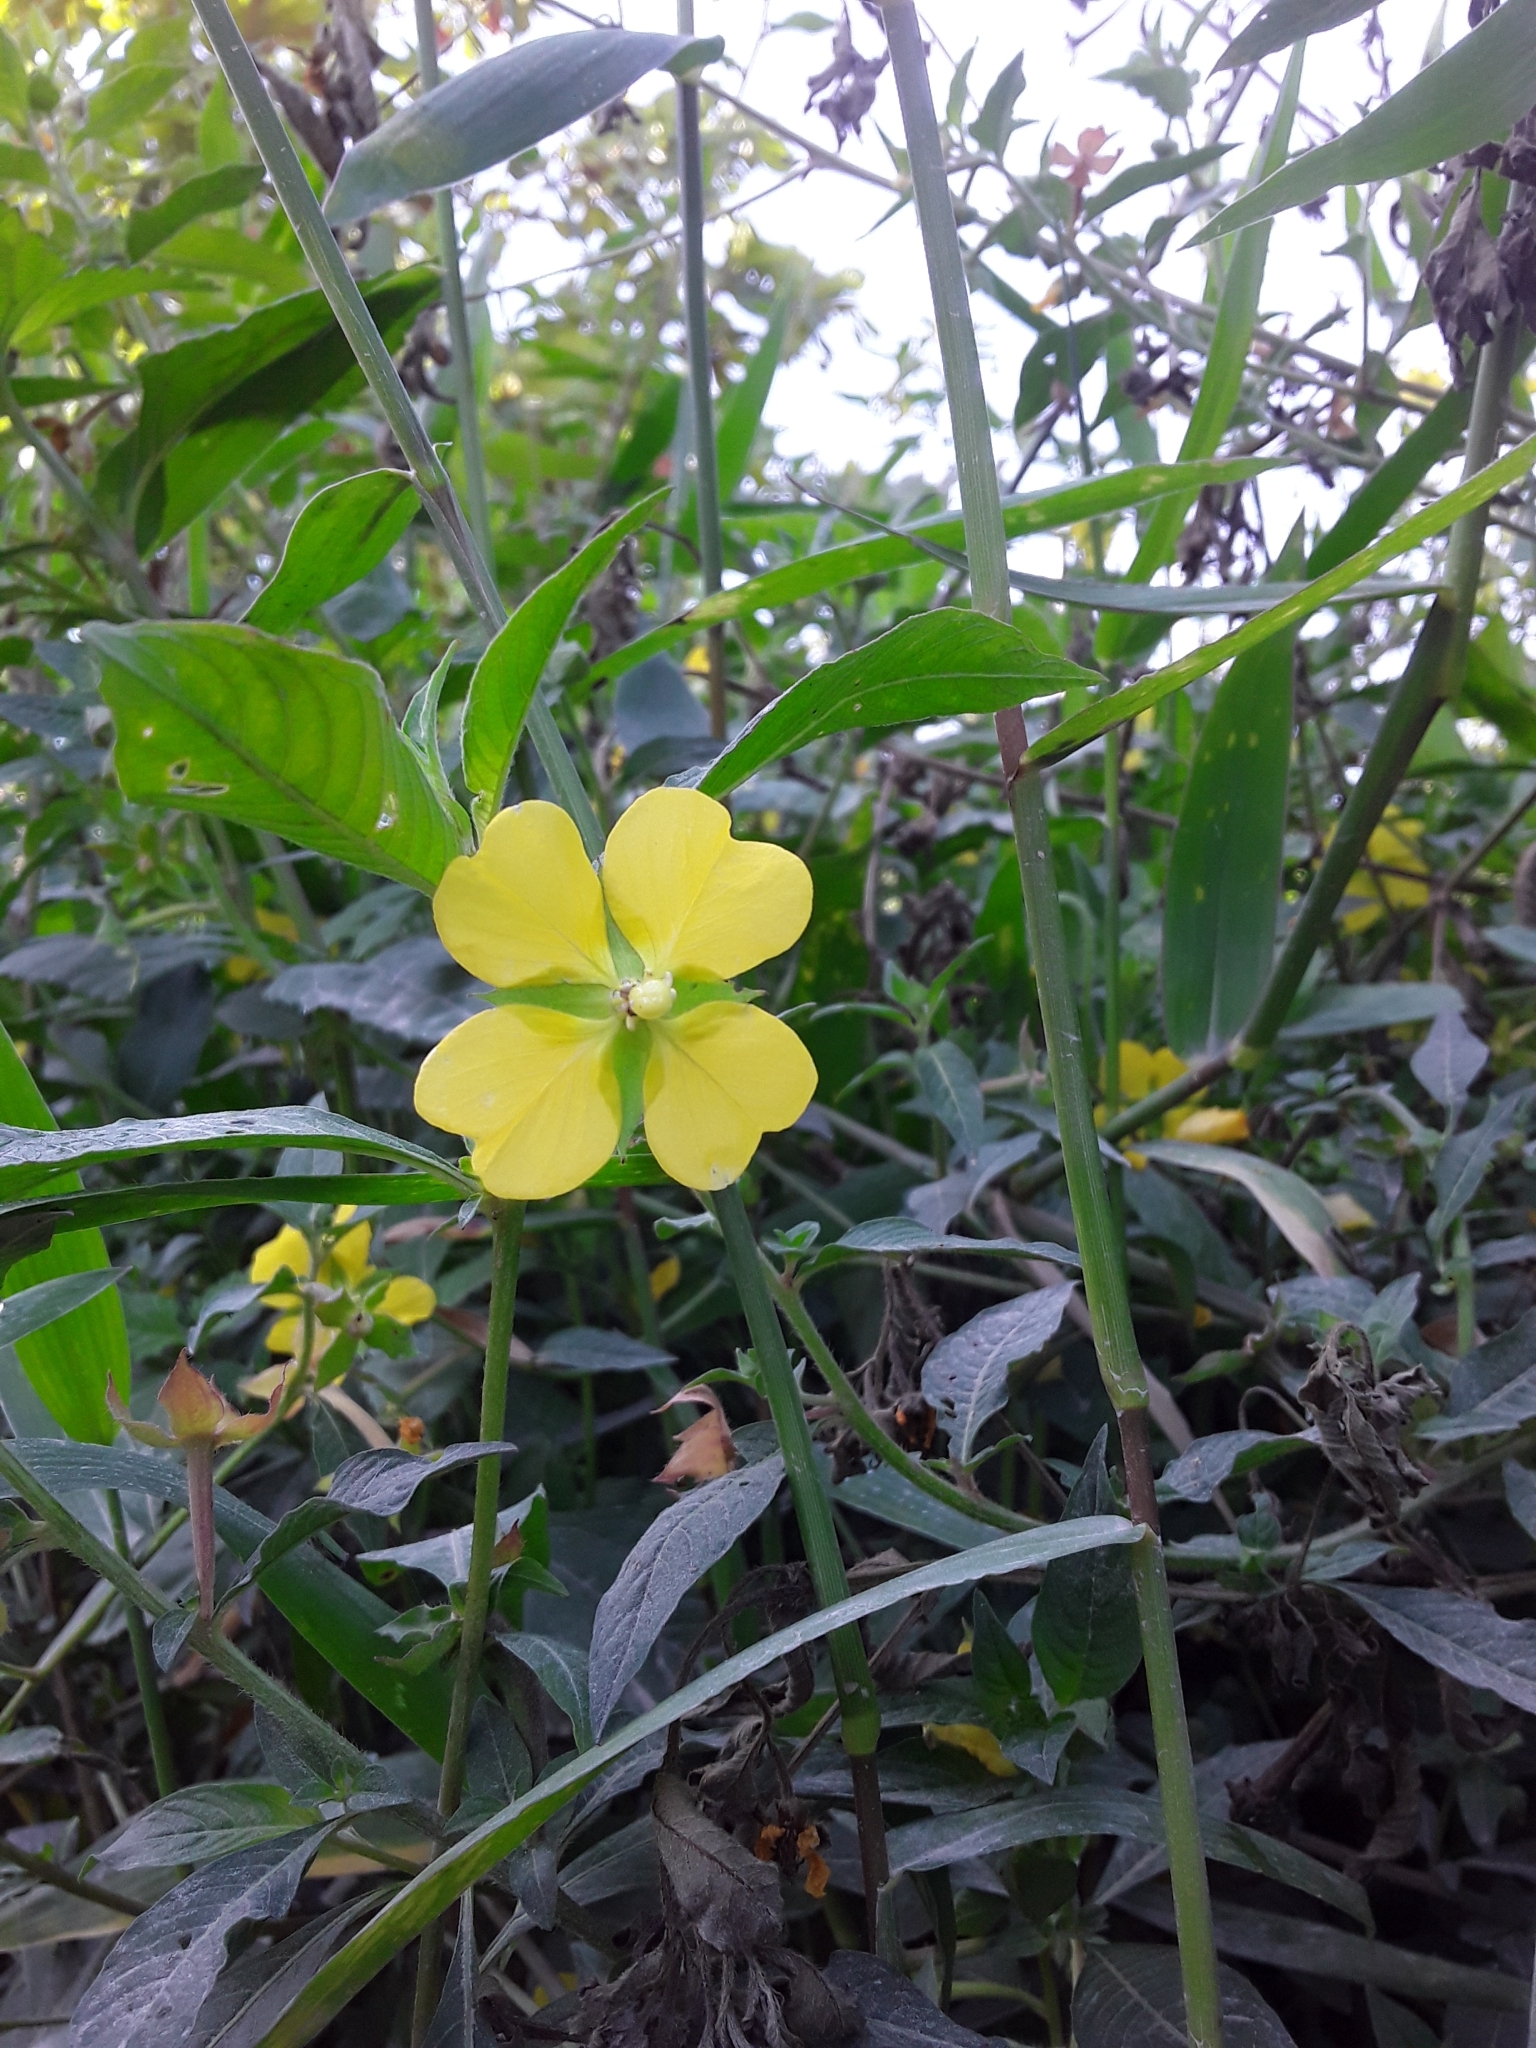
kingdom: Plantae
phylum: Tracheophyta
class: Magnoliopsida
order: Myrtales
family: Onagraceae
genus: Ludwigia
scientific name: Ludwigia octovalvis
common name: Water-primrose
